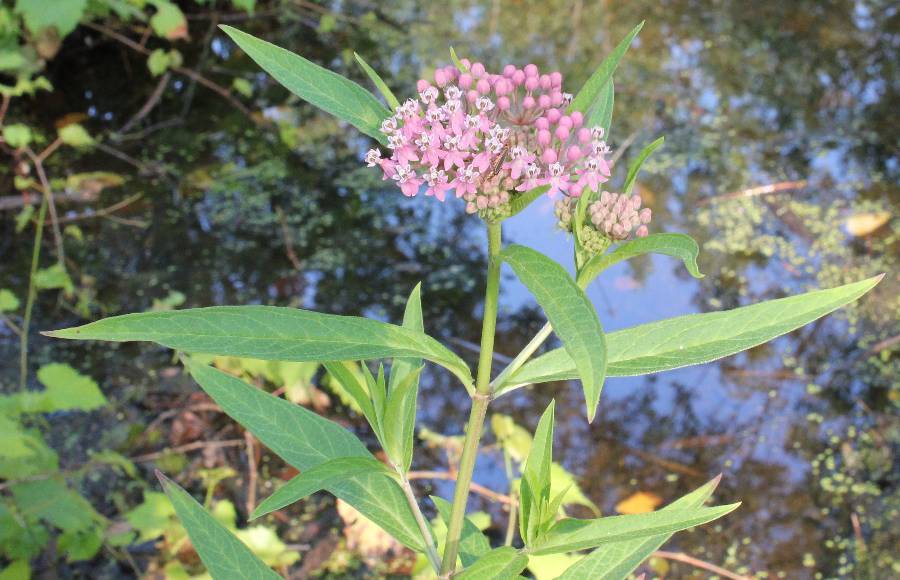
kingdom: Plantae
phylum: Tracheophyta
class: Magnoliopsida
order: Gentianales
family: Apocynaceae
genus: Asclepias
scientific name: Asclepias incarnata
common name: Swamp milkweed
